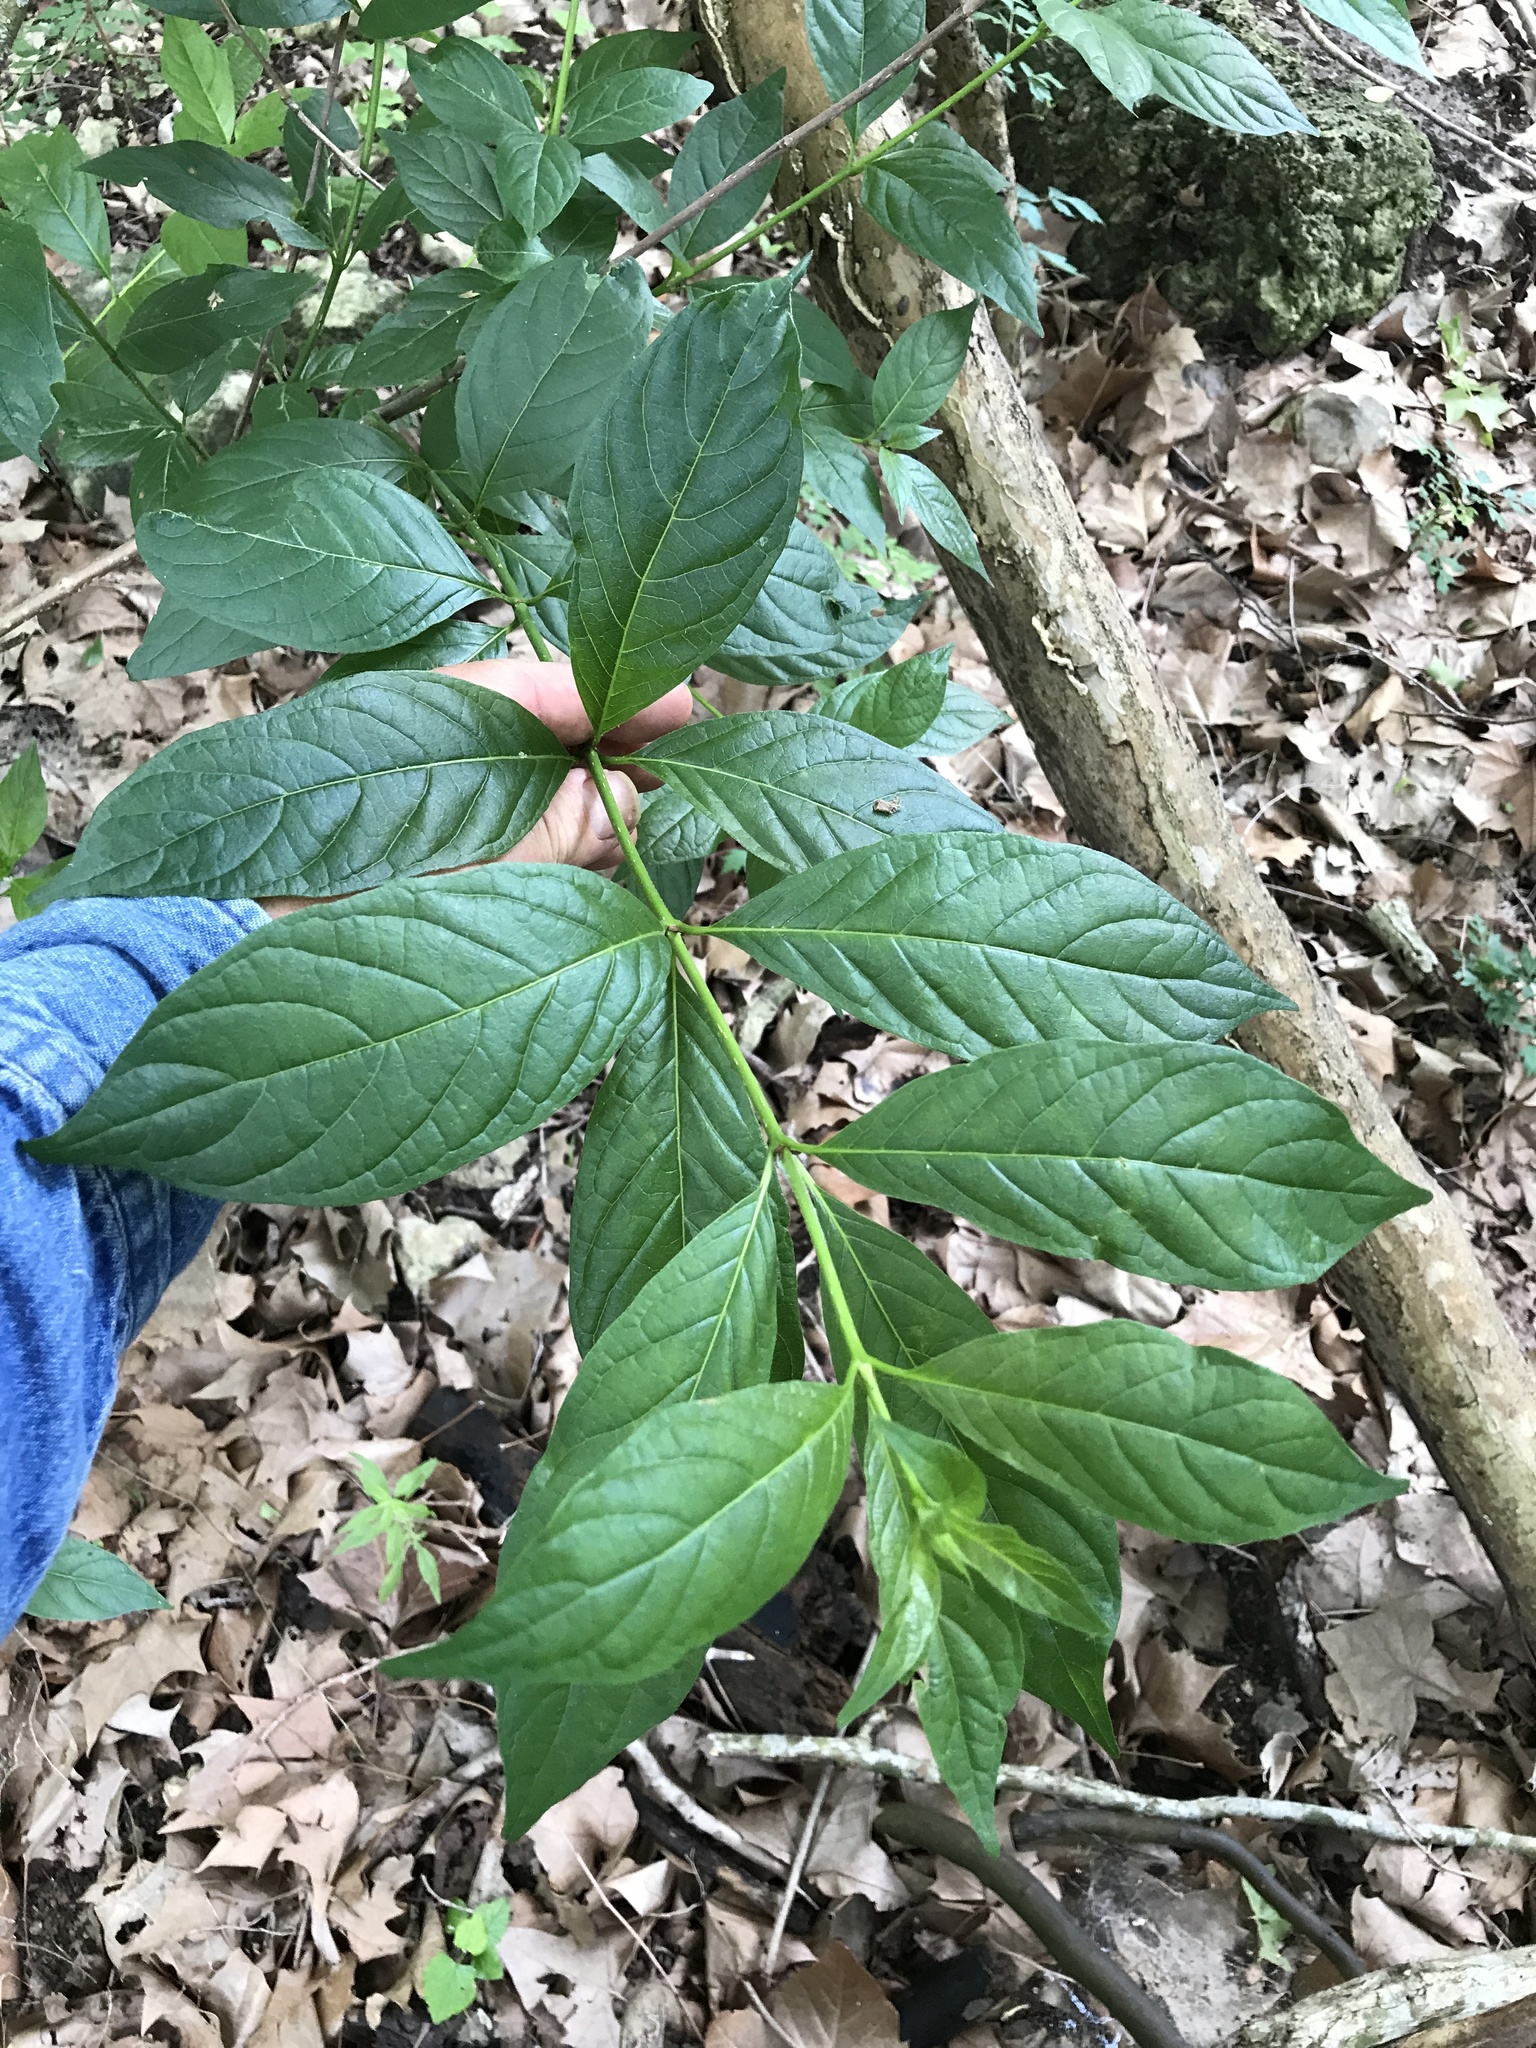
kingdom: Plantae
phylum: Tracheophyta
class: Magnoliopsida
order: Gentianales
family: Rubiaceae
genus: Cephalanthus
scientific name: Cephalanthus occidentalis
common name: Button-willow
